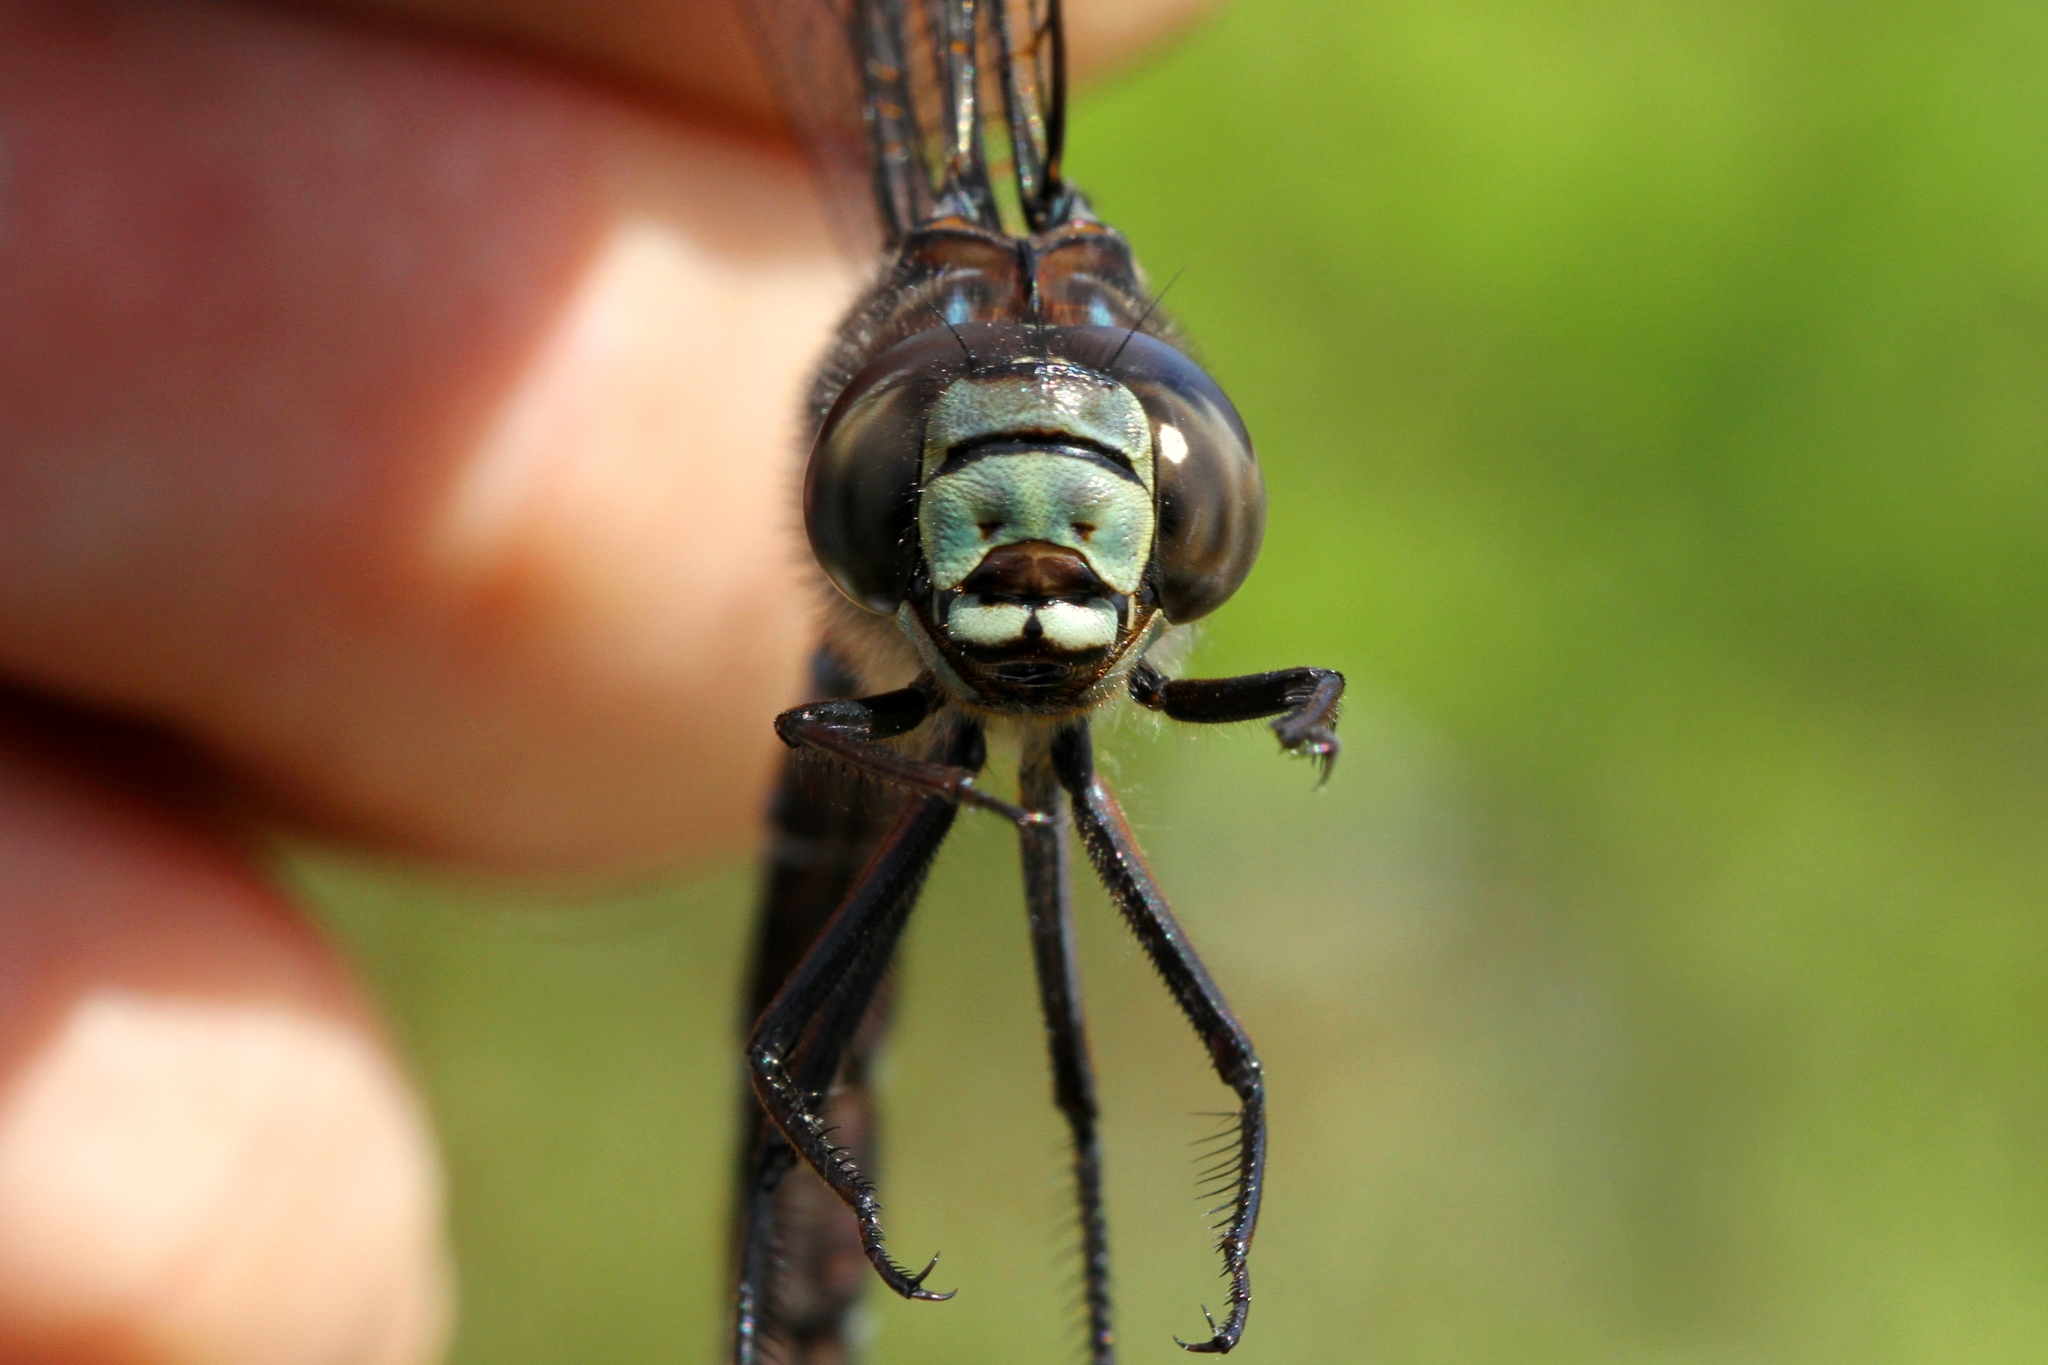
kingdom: Animalia
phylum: Arthropoda
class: Insecta
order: Odonata
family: Aeshnidae
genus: Aeshna
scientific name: Aeshna eremita
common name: Lake darner
